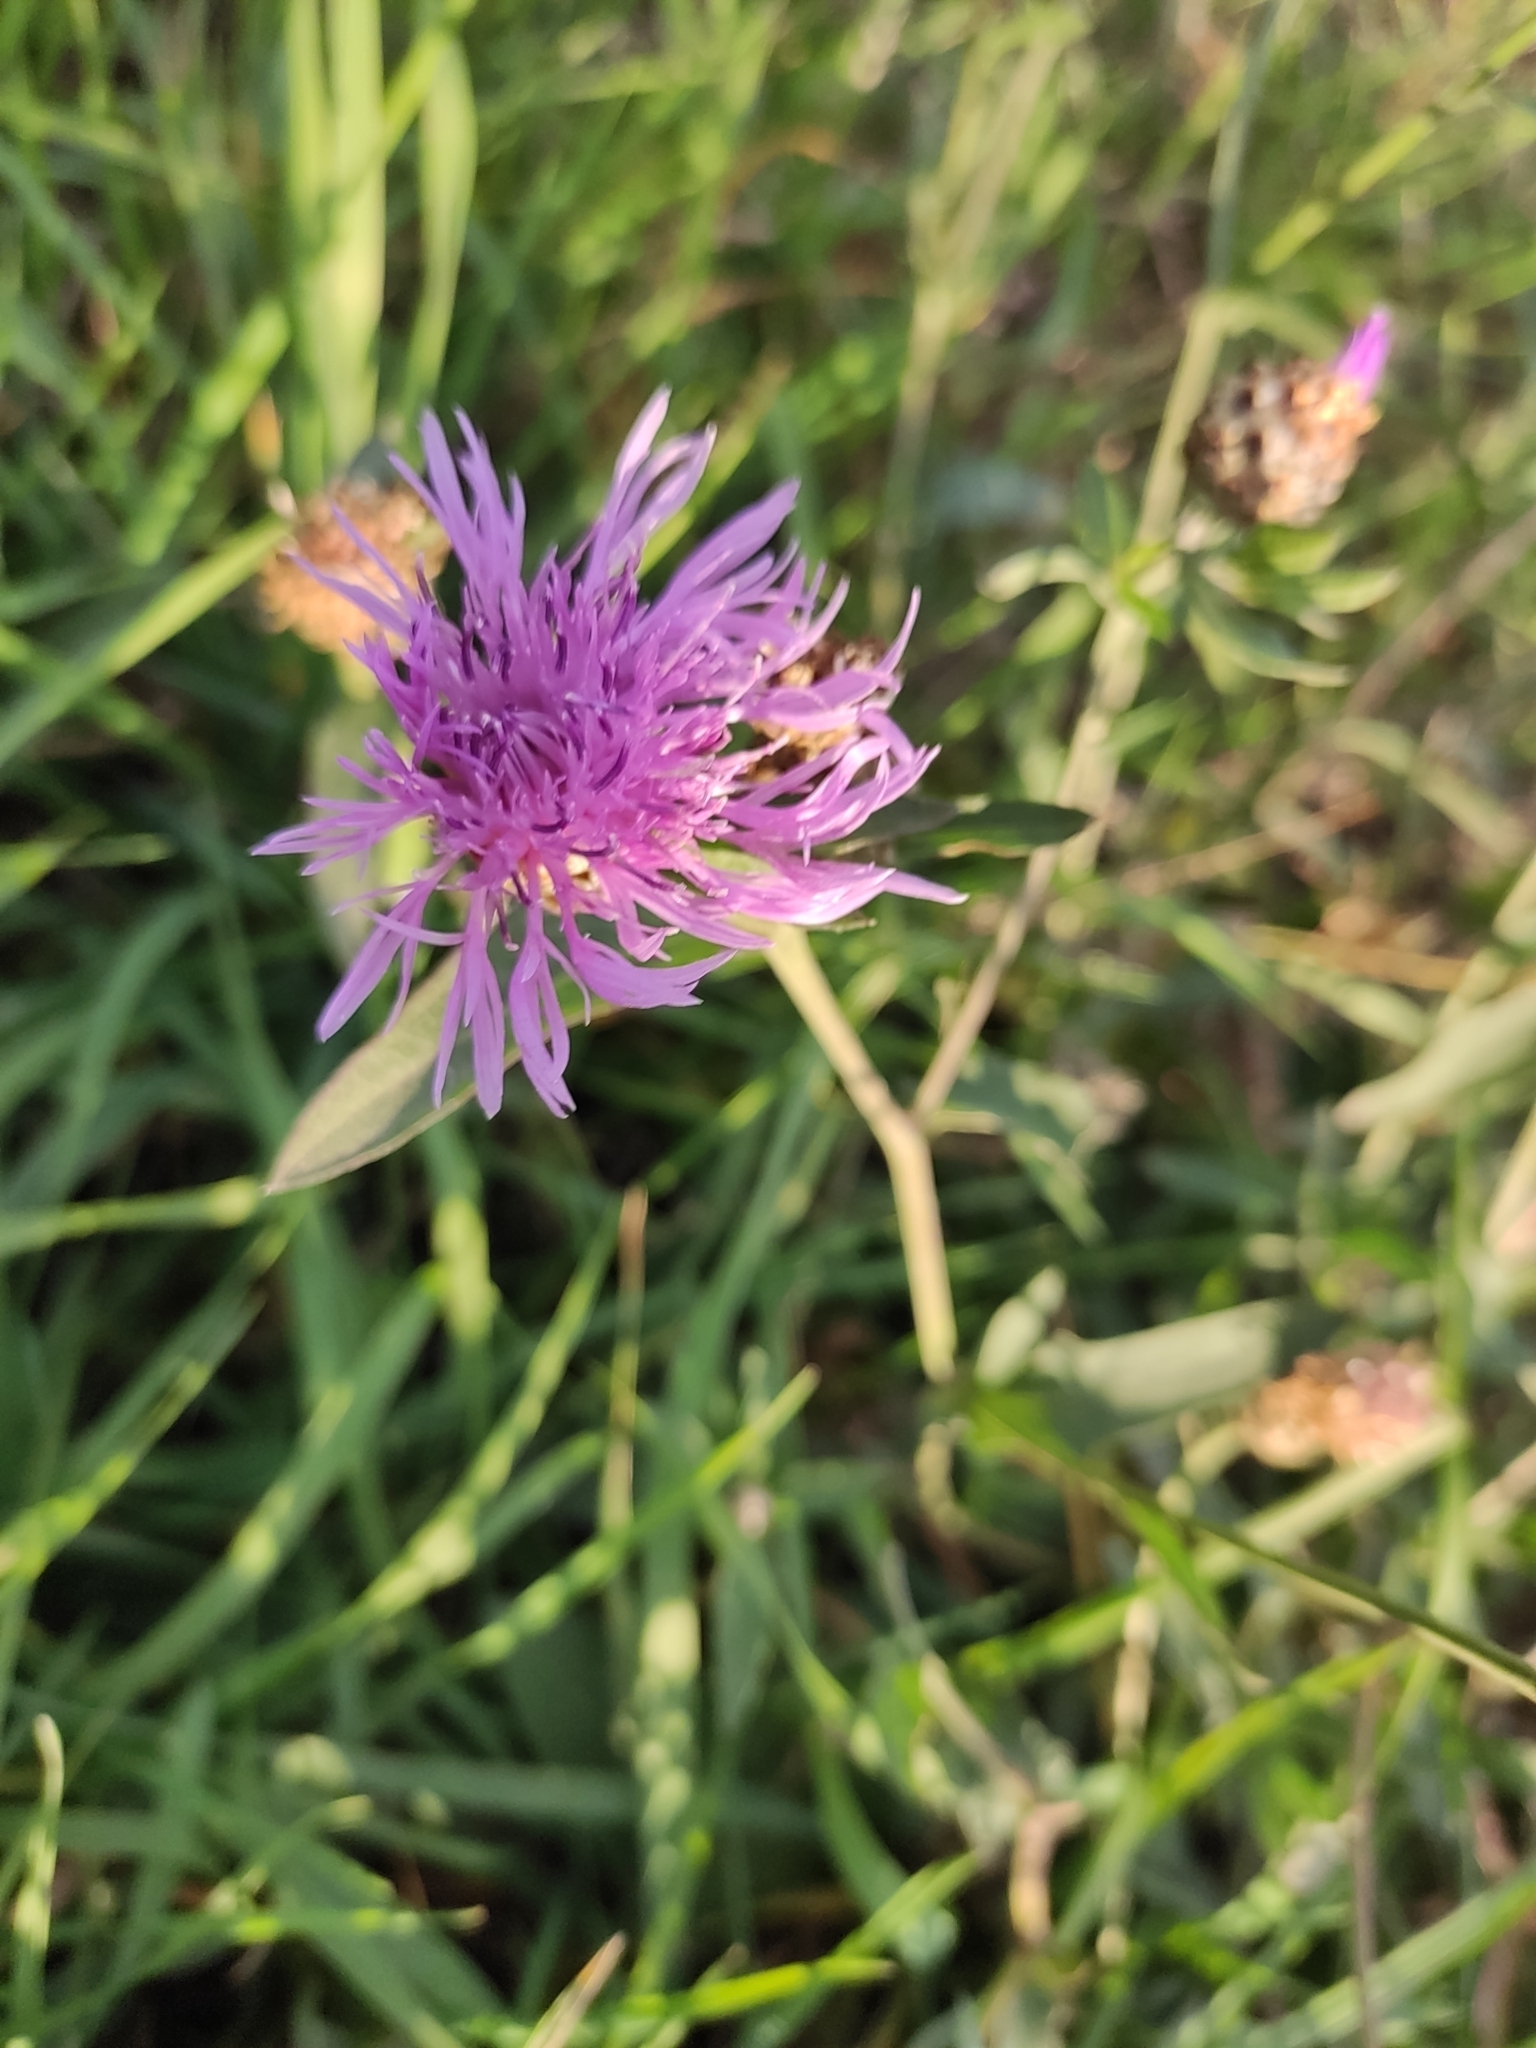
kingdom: Plantae
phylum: Tracheophyta
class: Magnoliopsida
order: Asterales
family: Asteraceae
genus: Centaurea
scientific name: Centaurea jacea
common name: Brown knapweed
